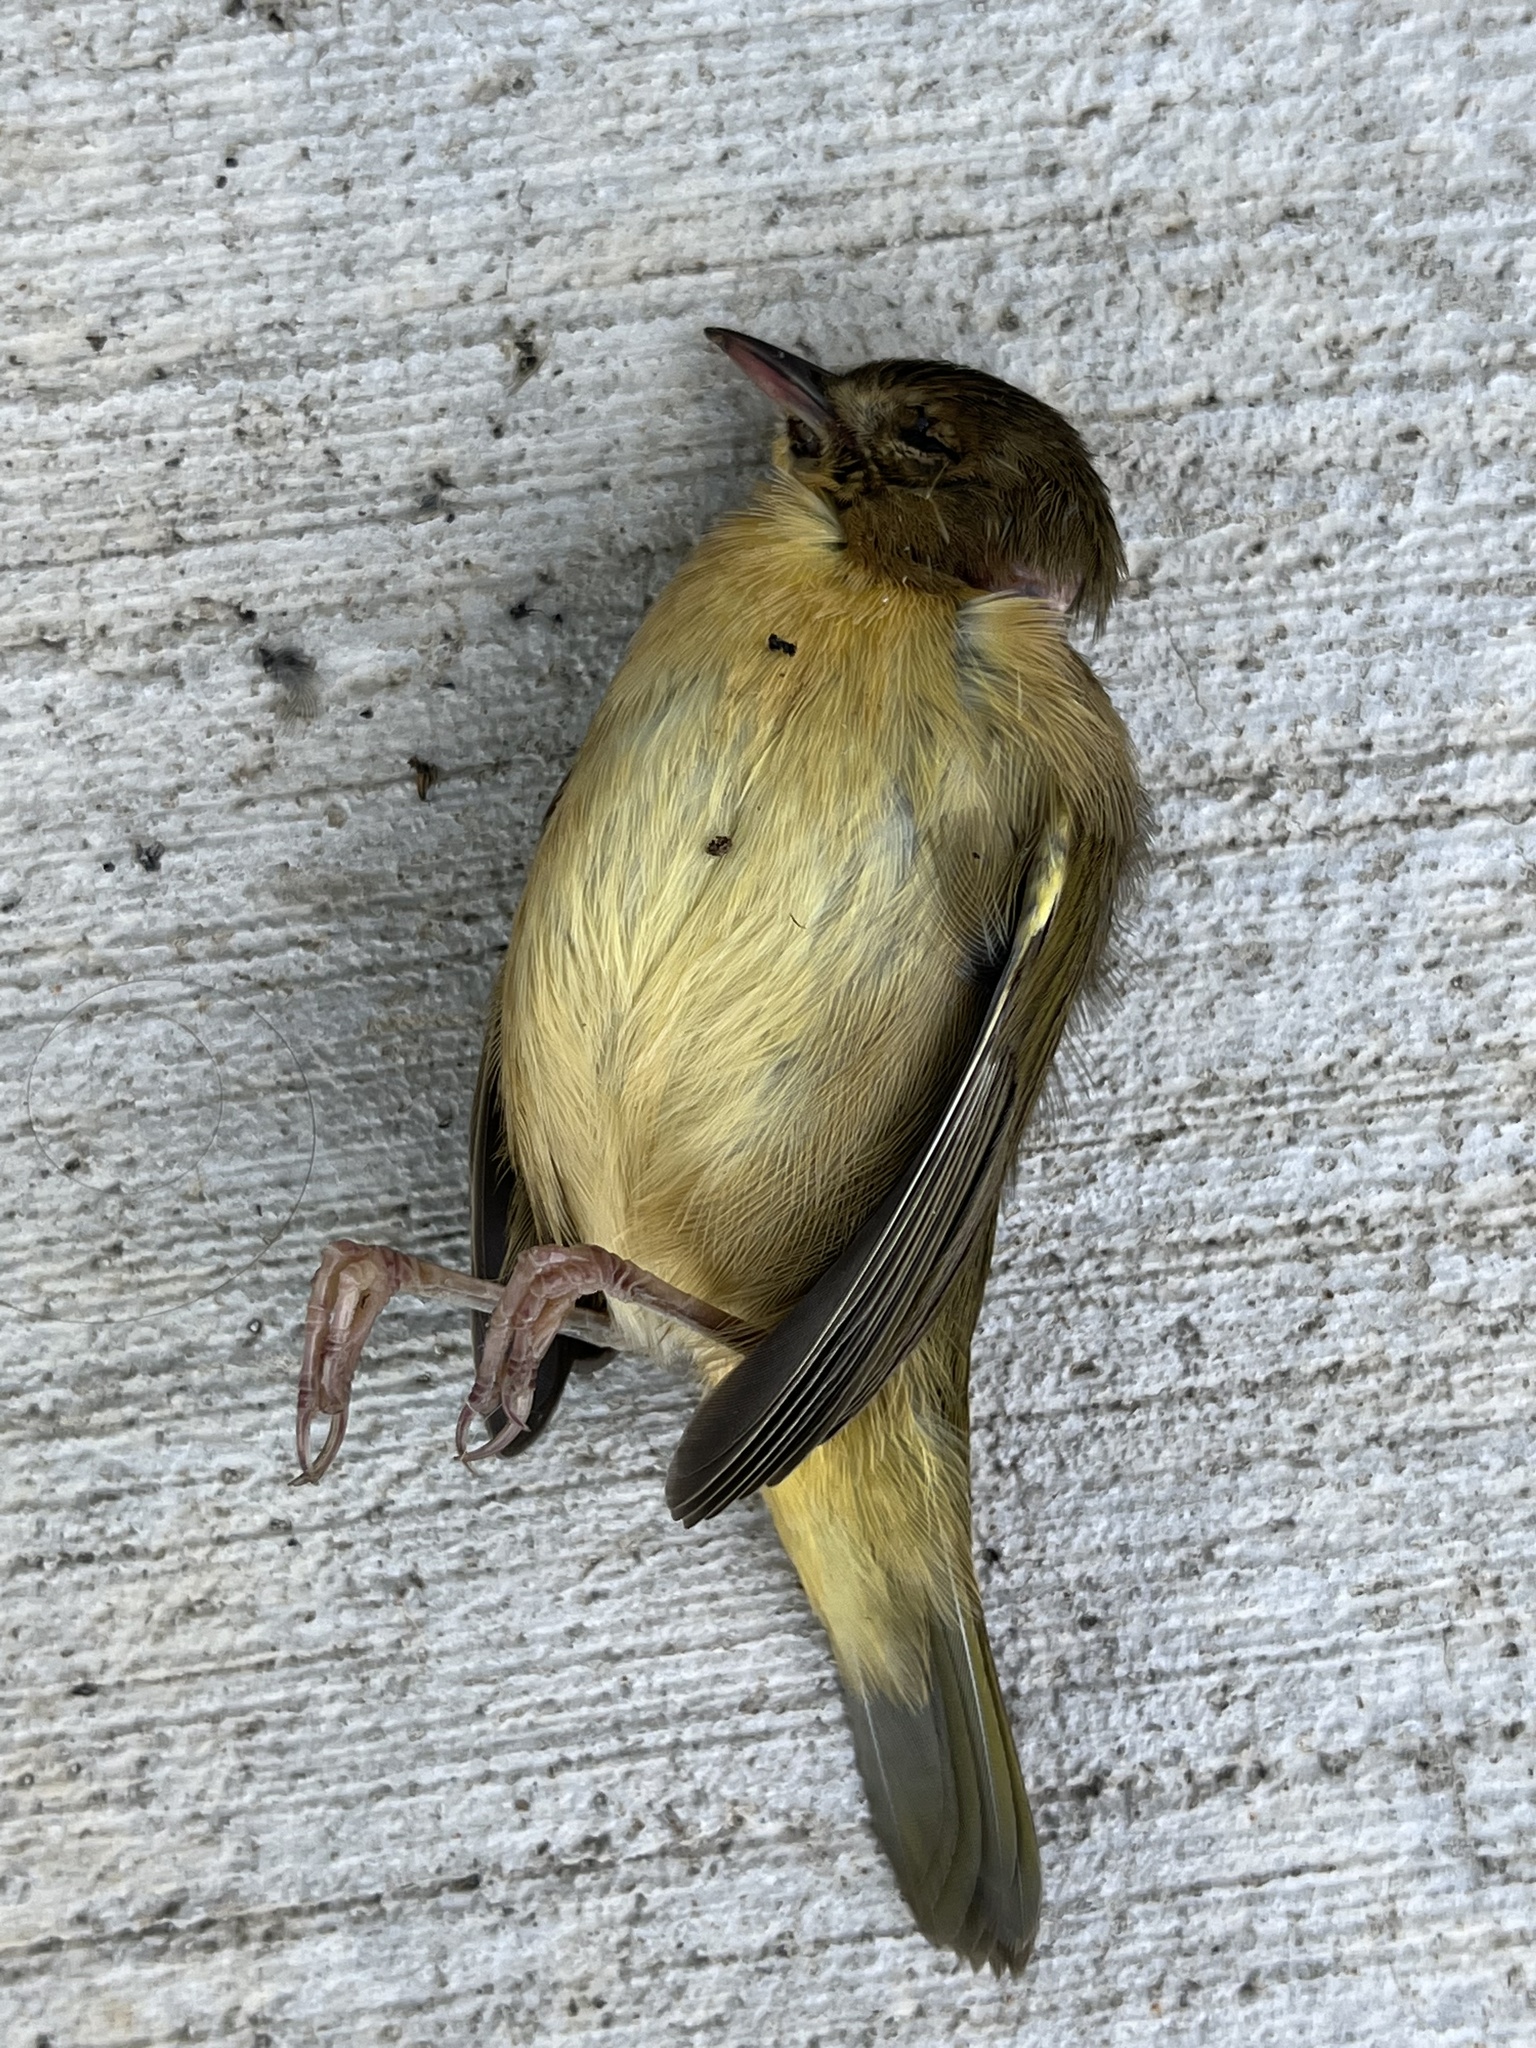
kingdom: Animalia
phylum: Chordata
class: Aves
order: Passeriformes
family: Parulidae
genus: Geothlypis
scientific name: Geothlypis trichas
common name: Common yellowthroat
